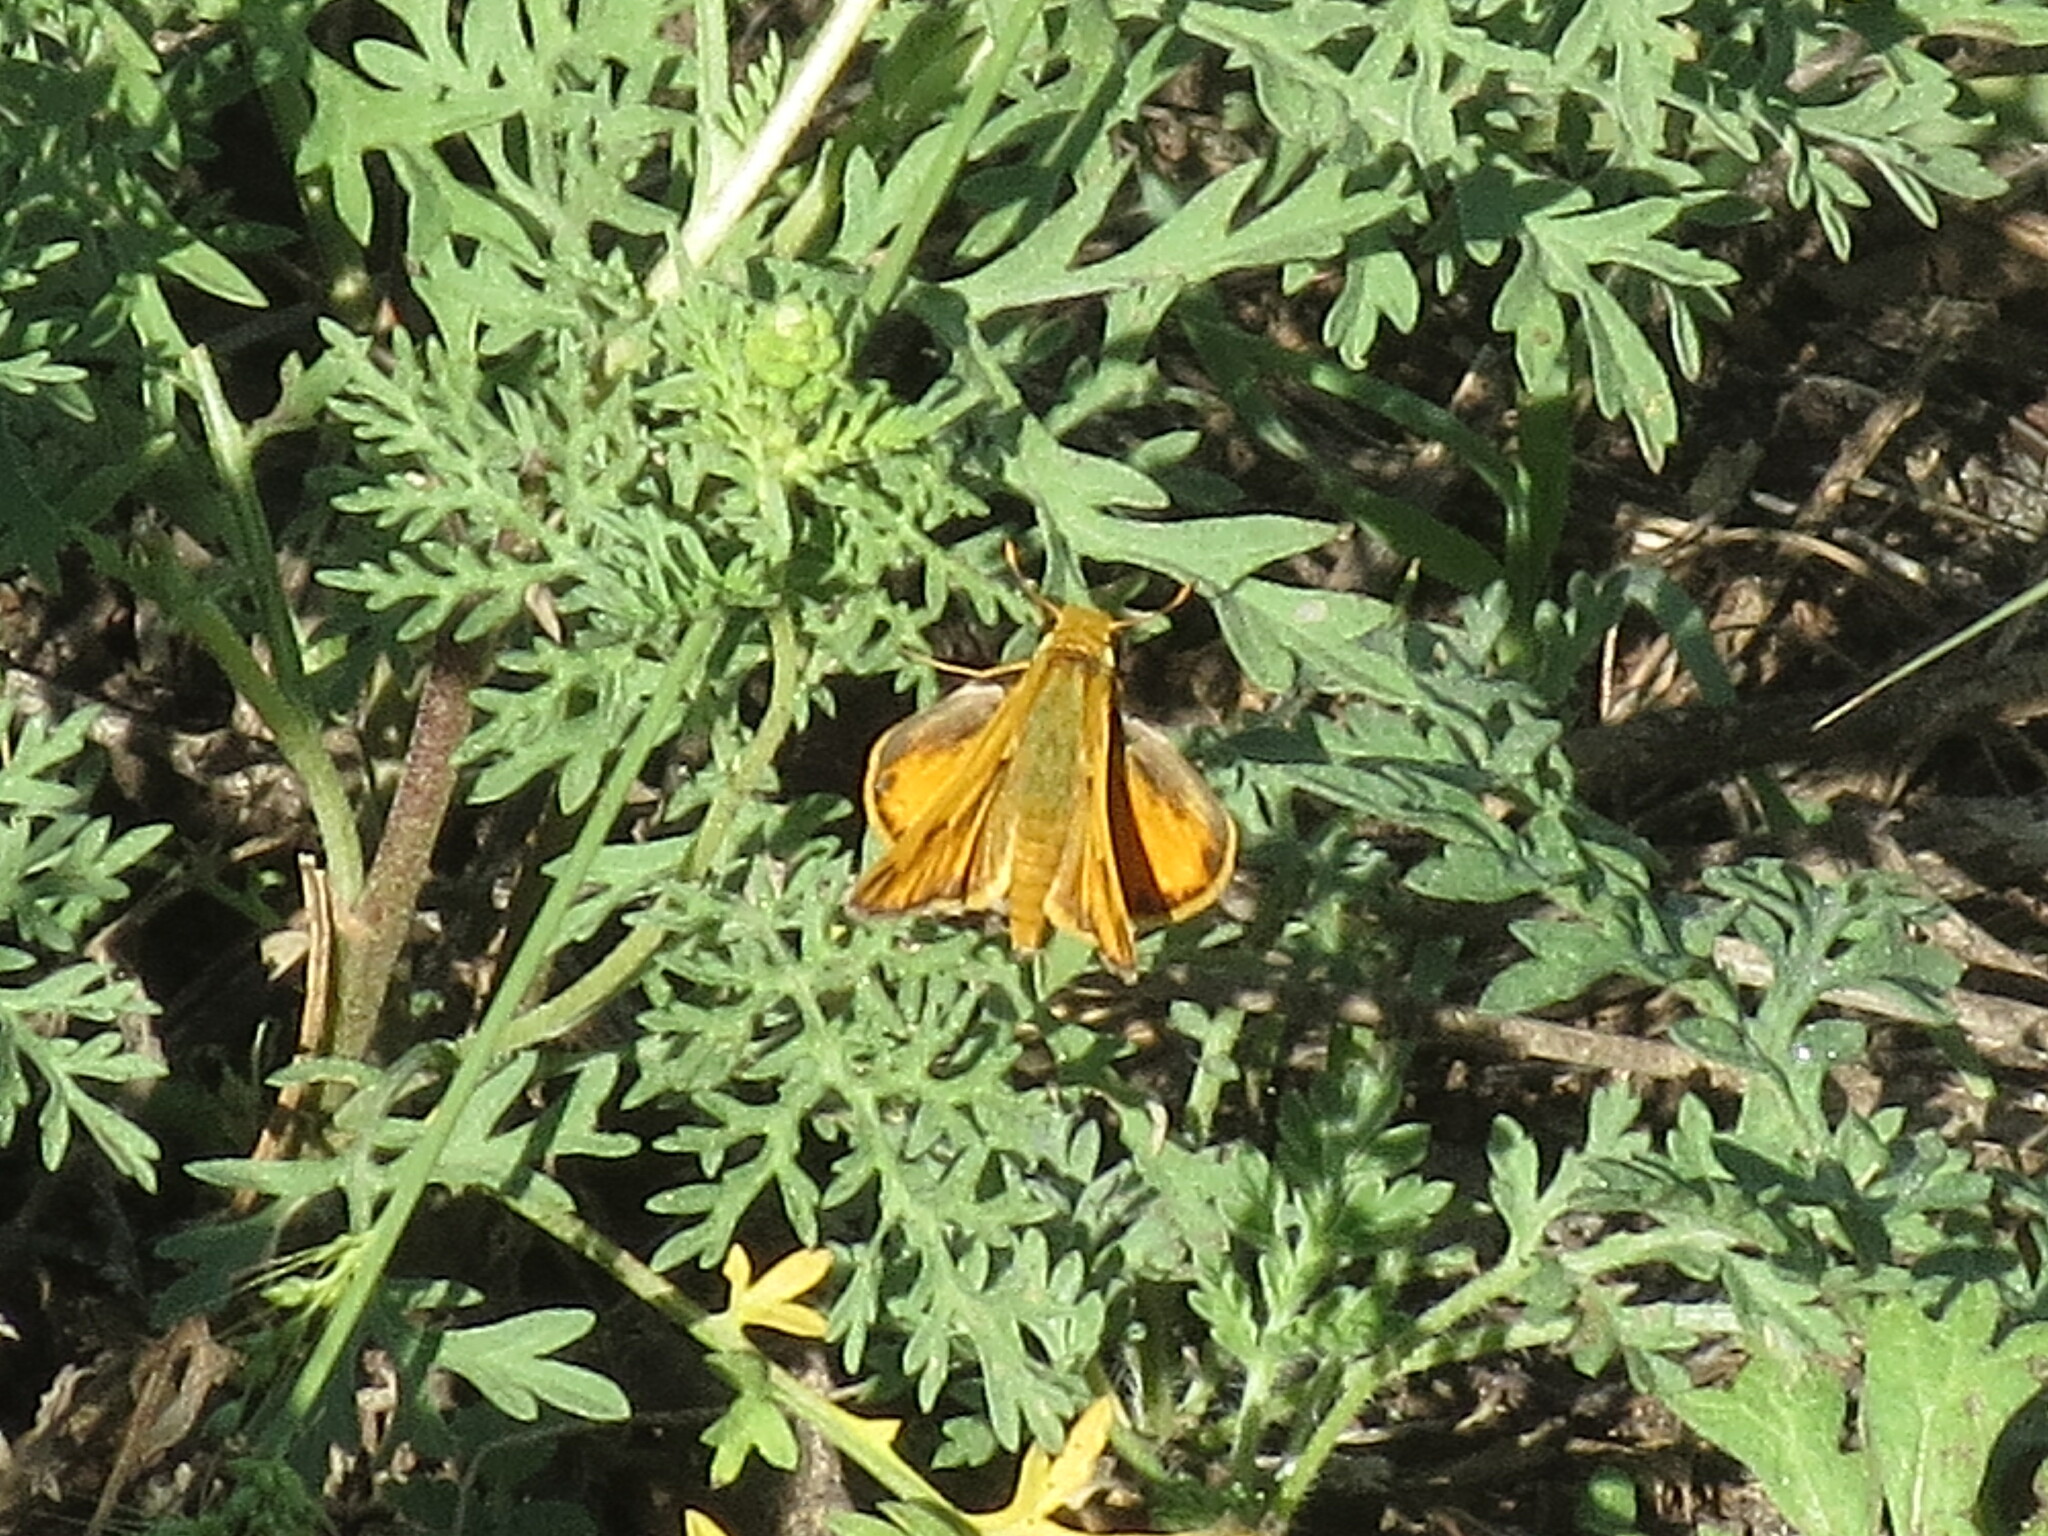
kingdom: Animalia
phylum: Arthropoda
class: Insecta
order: Lepidoptera
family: Hesperiidae
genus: Hylephila
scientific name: Hylephila phyleus
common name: Fiery skipper
